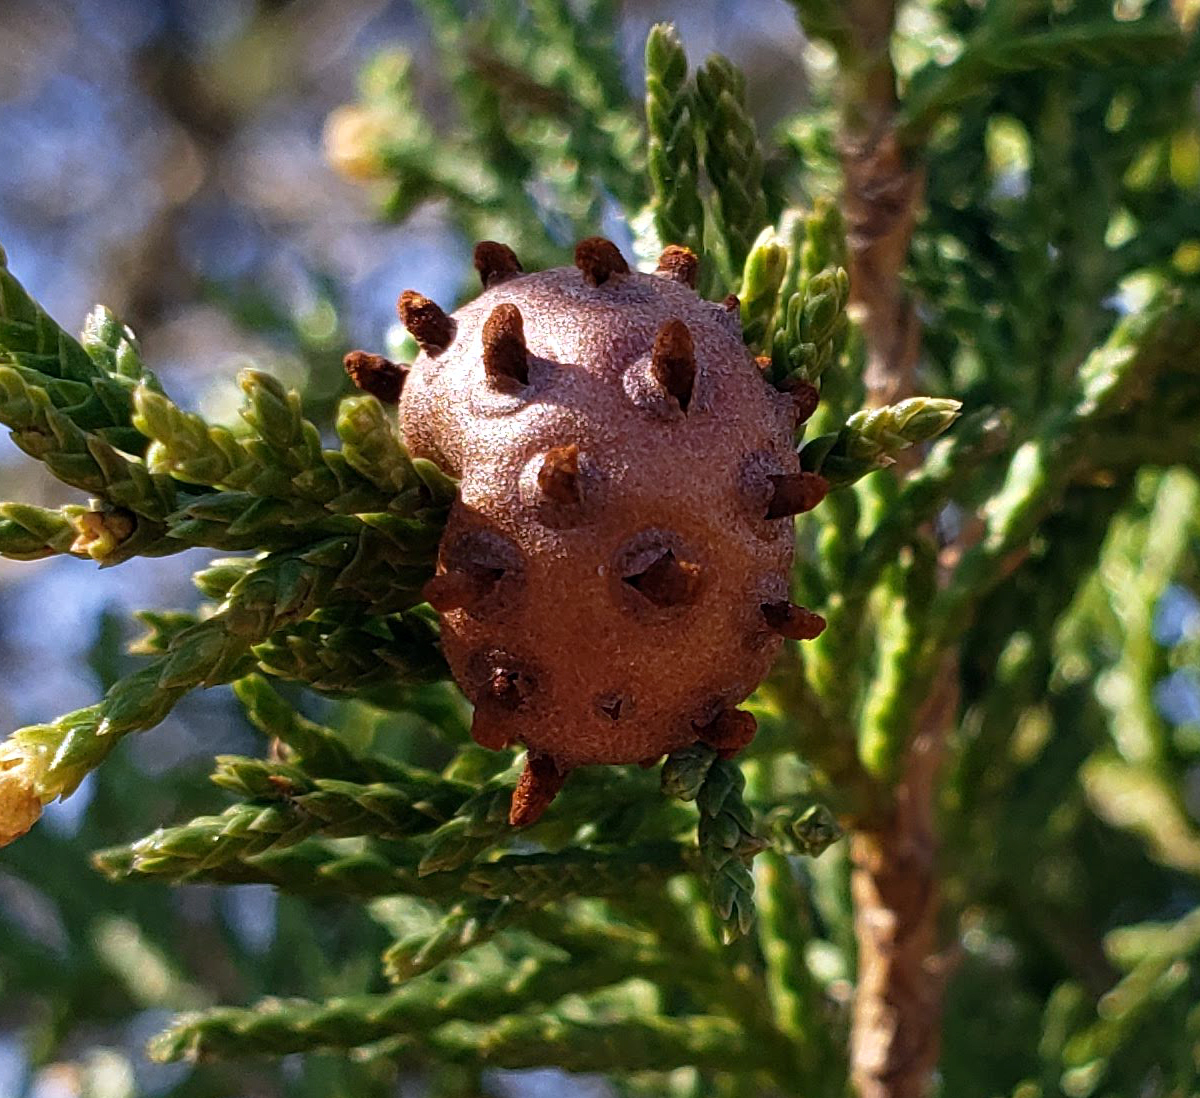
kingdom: Fungi
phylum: Basidiomycota
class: Pucciniomycetes
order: Pucciniales
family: Gymnosporangiaceae
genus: Gymnosporangium
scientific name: Gymnosporangium juniperi-virginianae
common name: Juniper-apple rust
